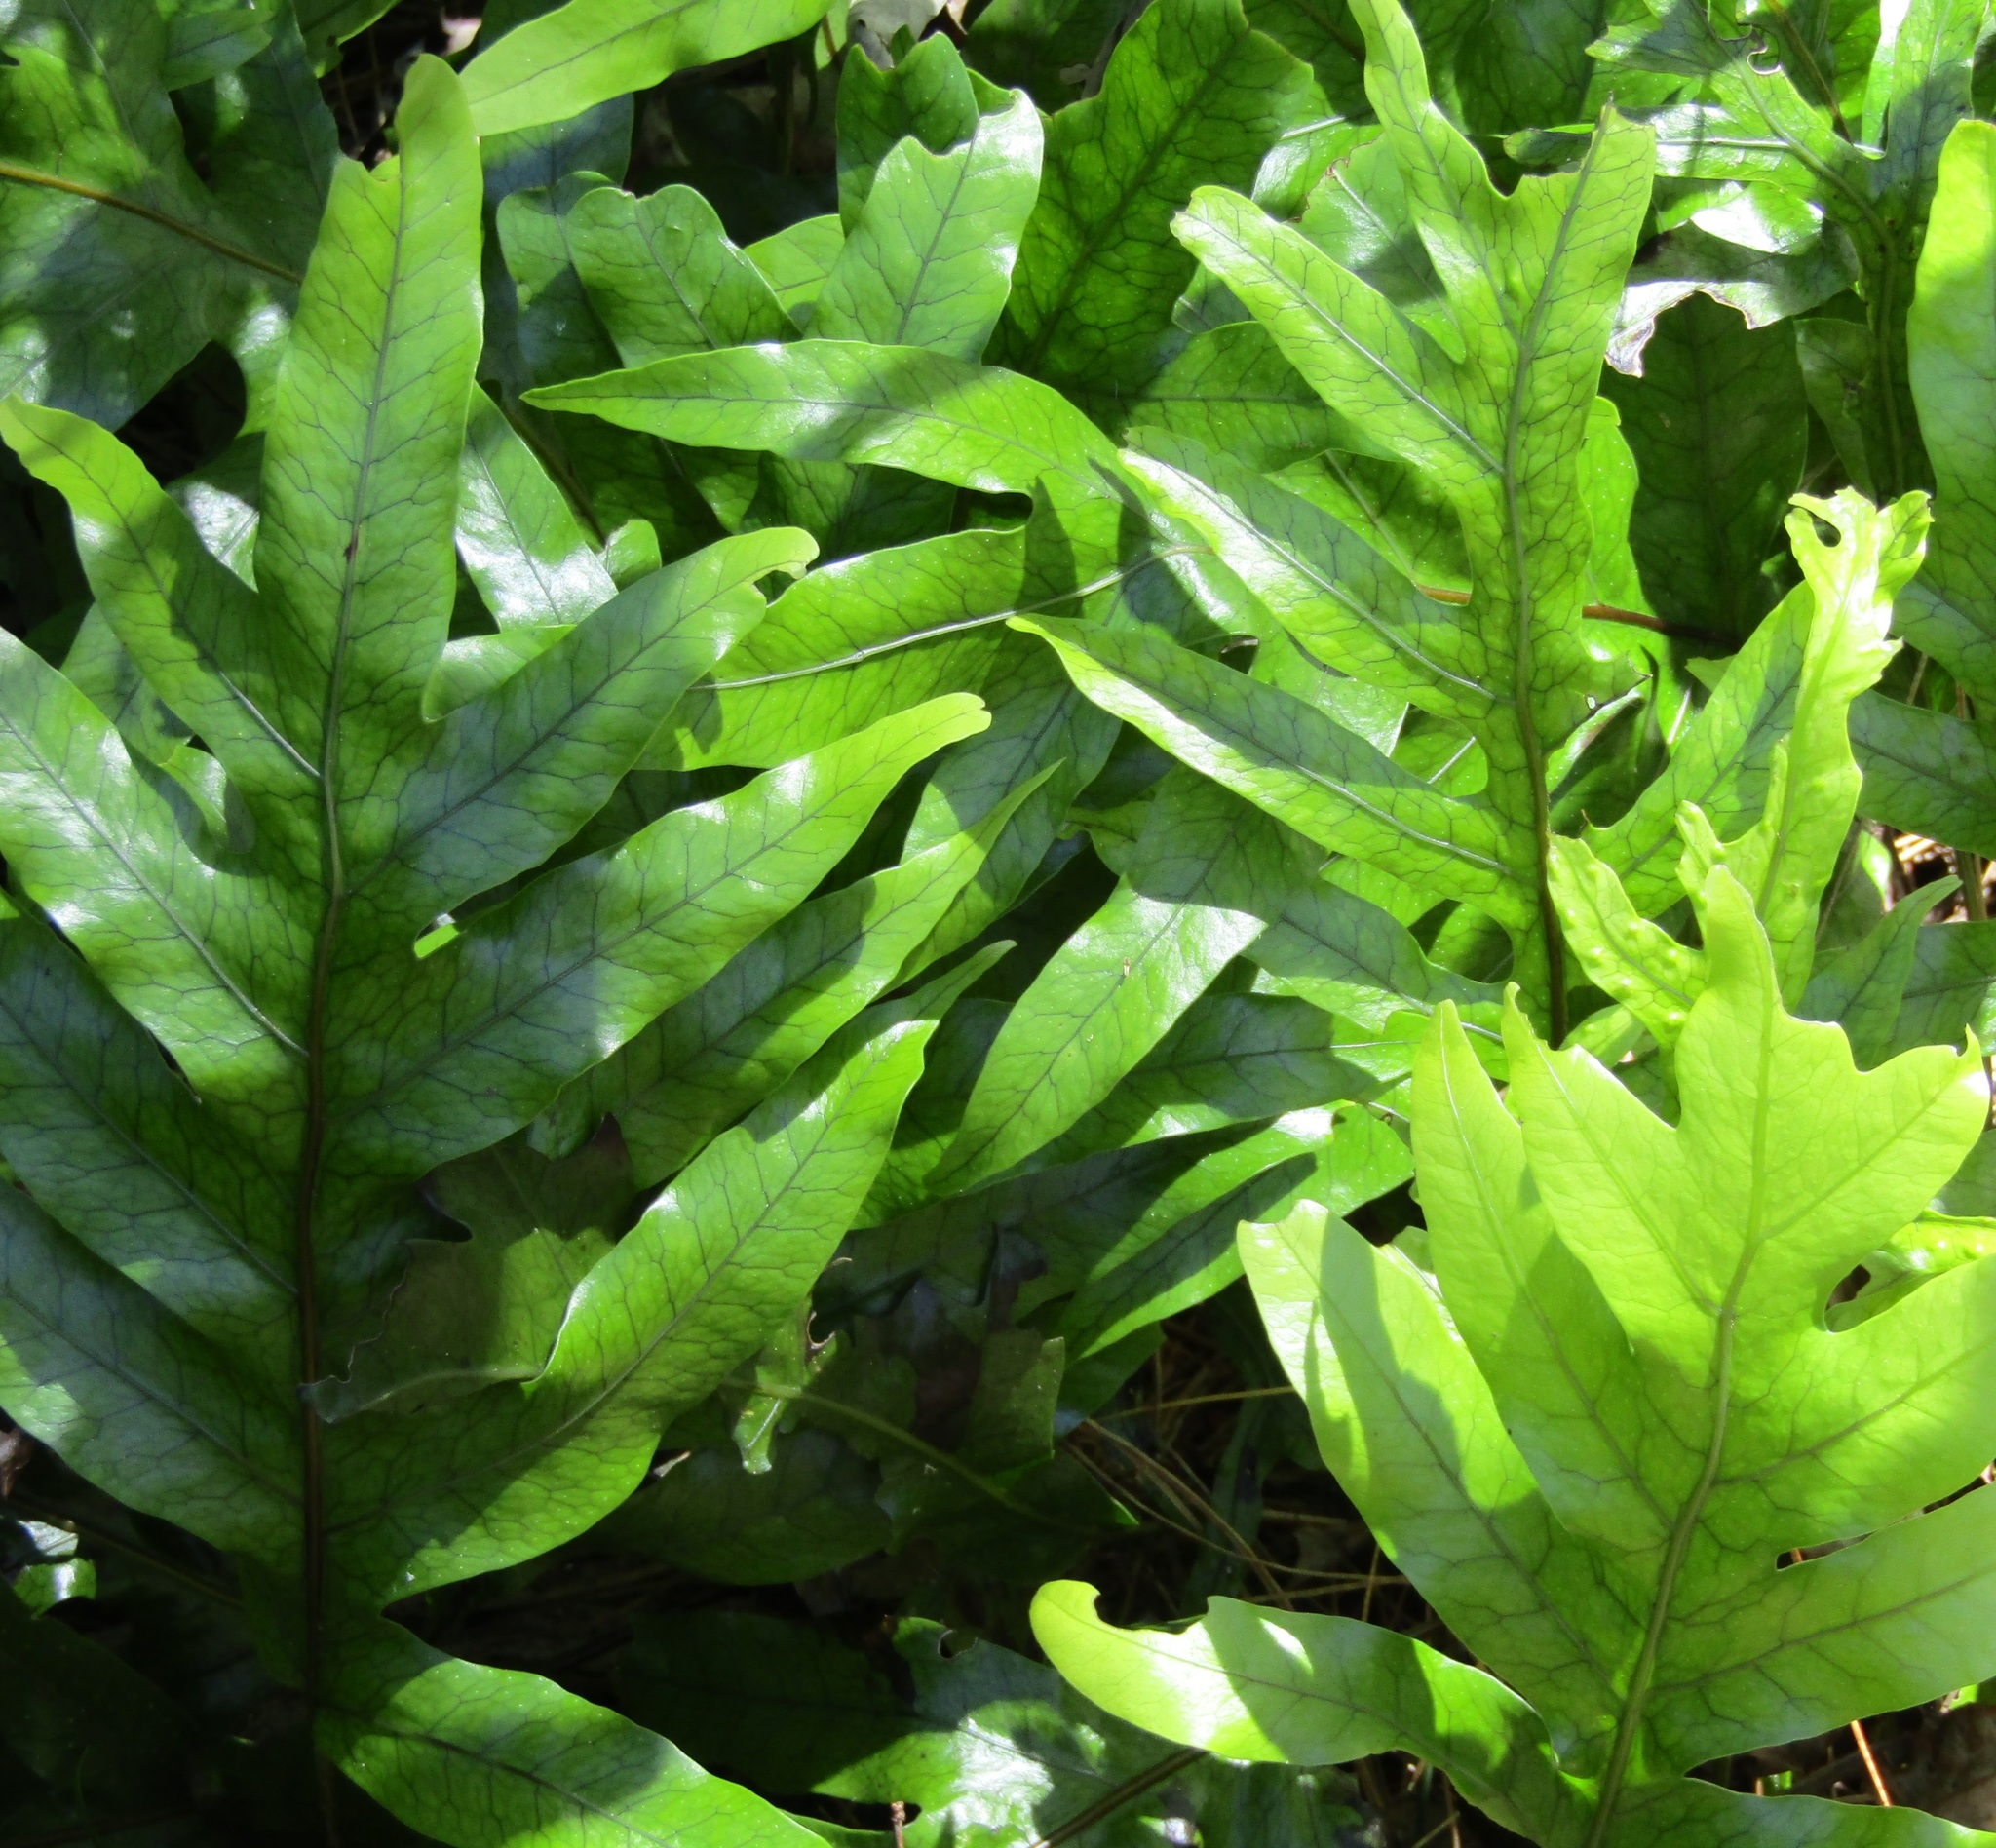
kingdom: Plantae
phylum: Tracheophyta
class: Polypodiopsida
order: Polypodiales
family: Polypodiaceae
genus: Lecanopteris
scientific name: Lecanopteris pustulata
